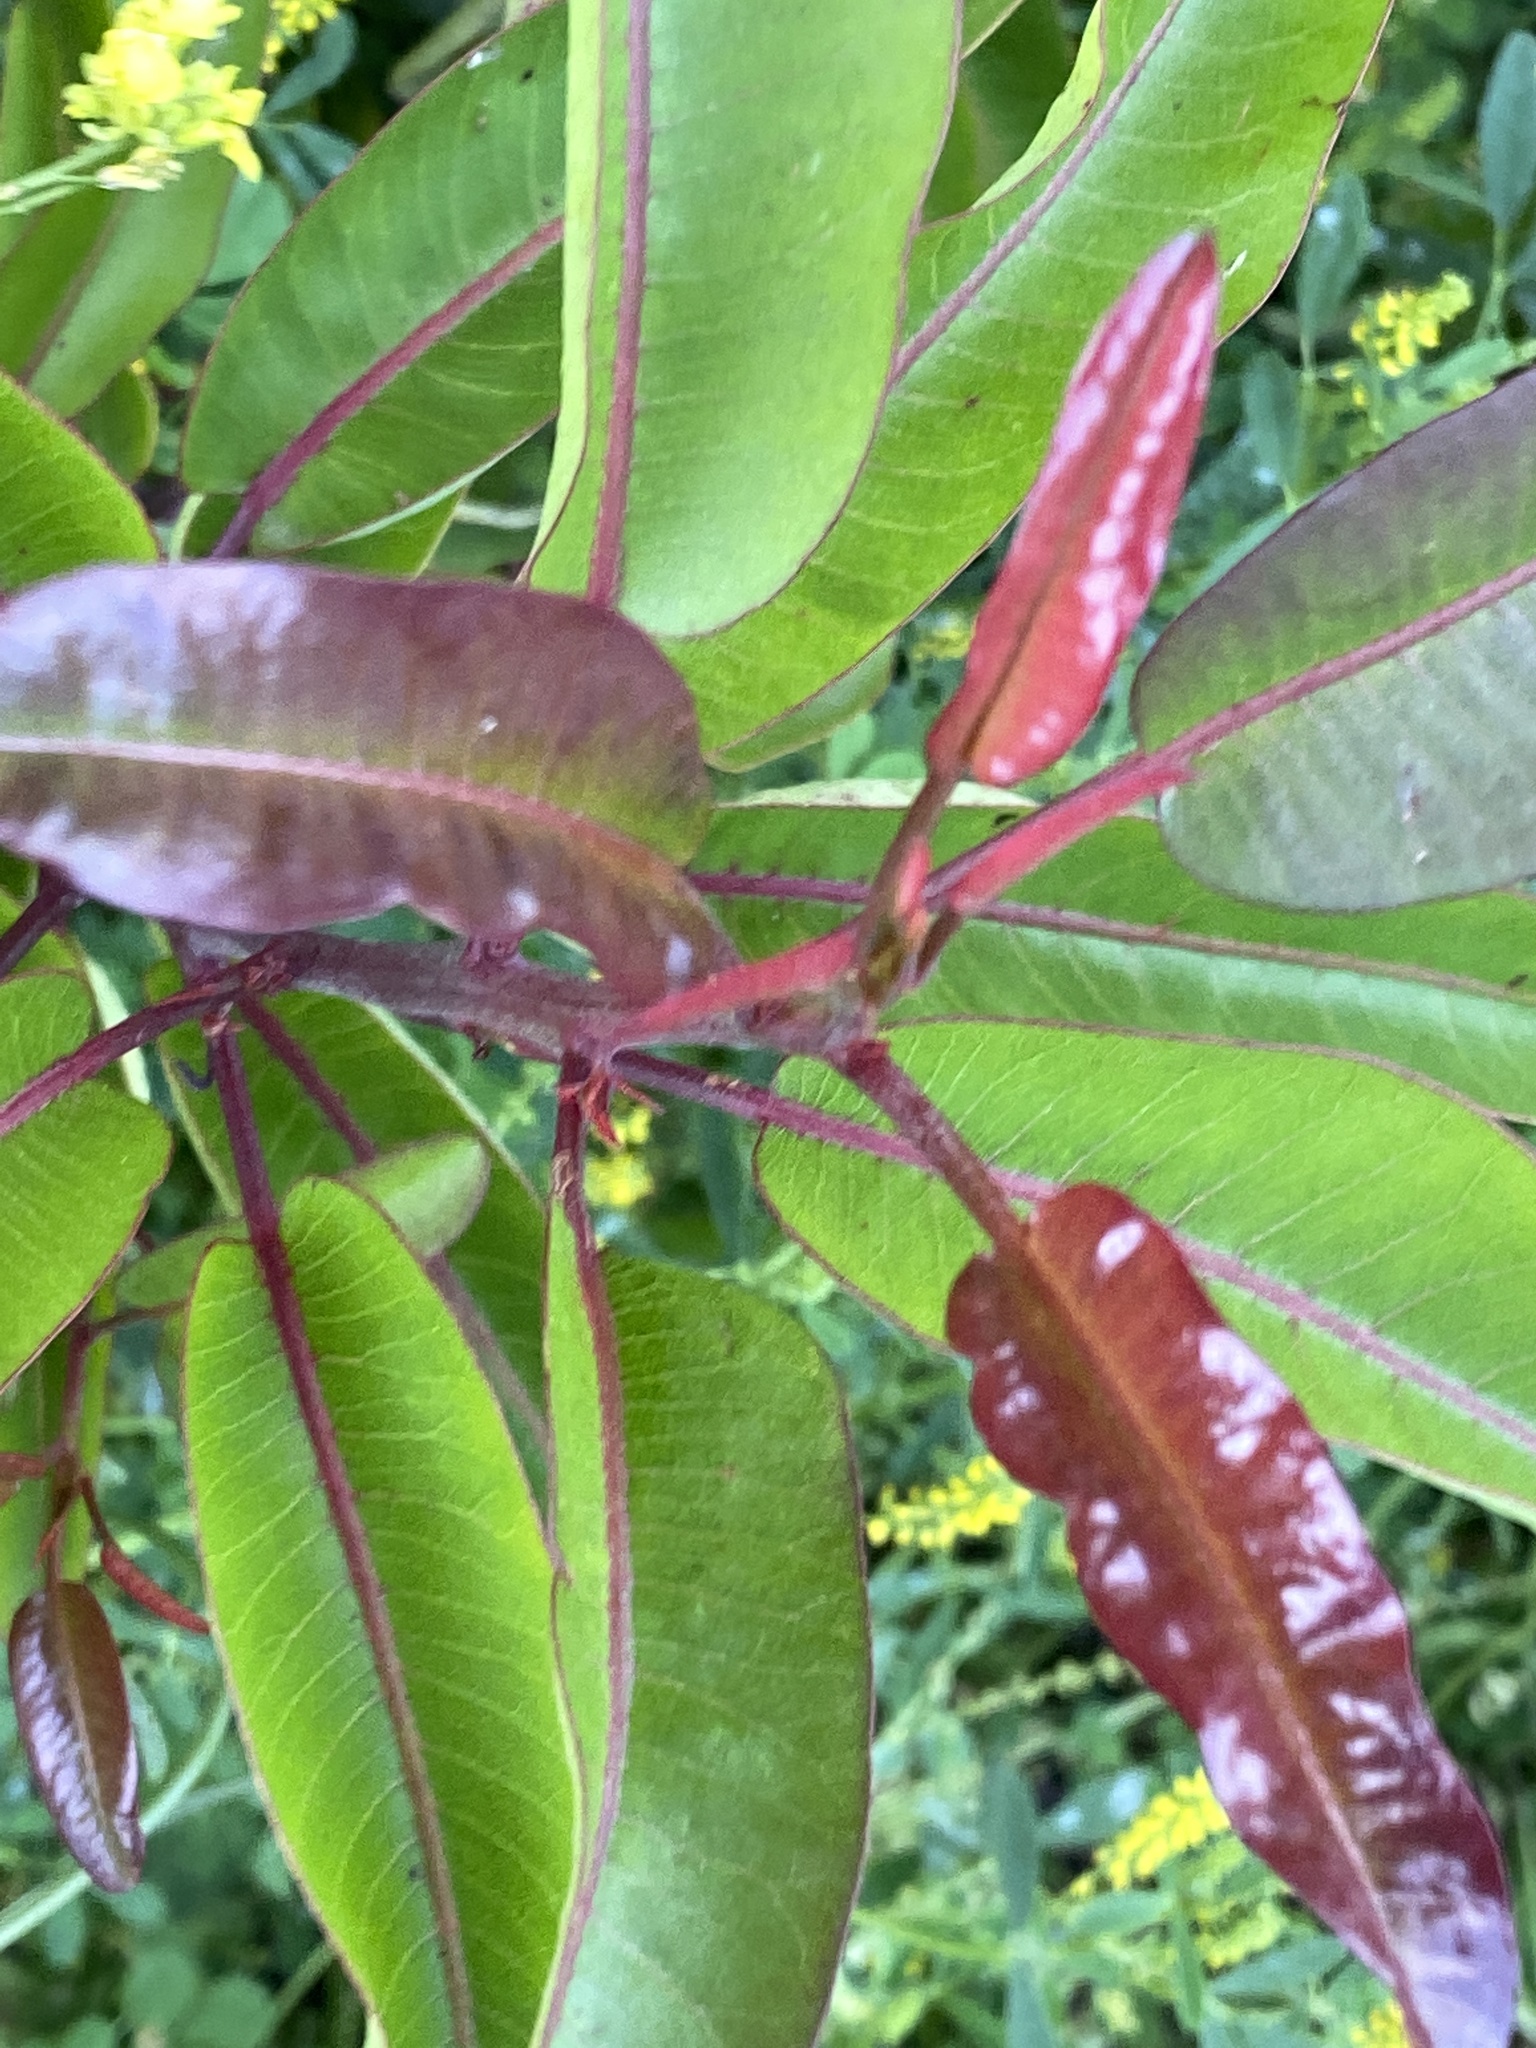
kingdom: Plantae
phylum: Tracheophyta
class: Magnoliopsida
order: Sapindales
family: Anacardiaceae
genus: Malosma
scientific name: Malosma laurina
